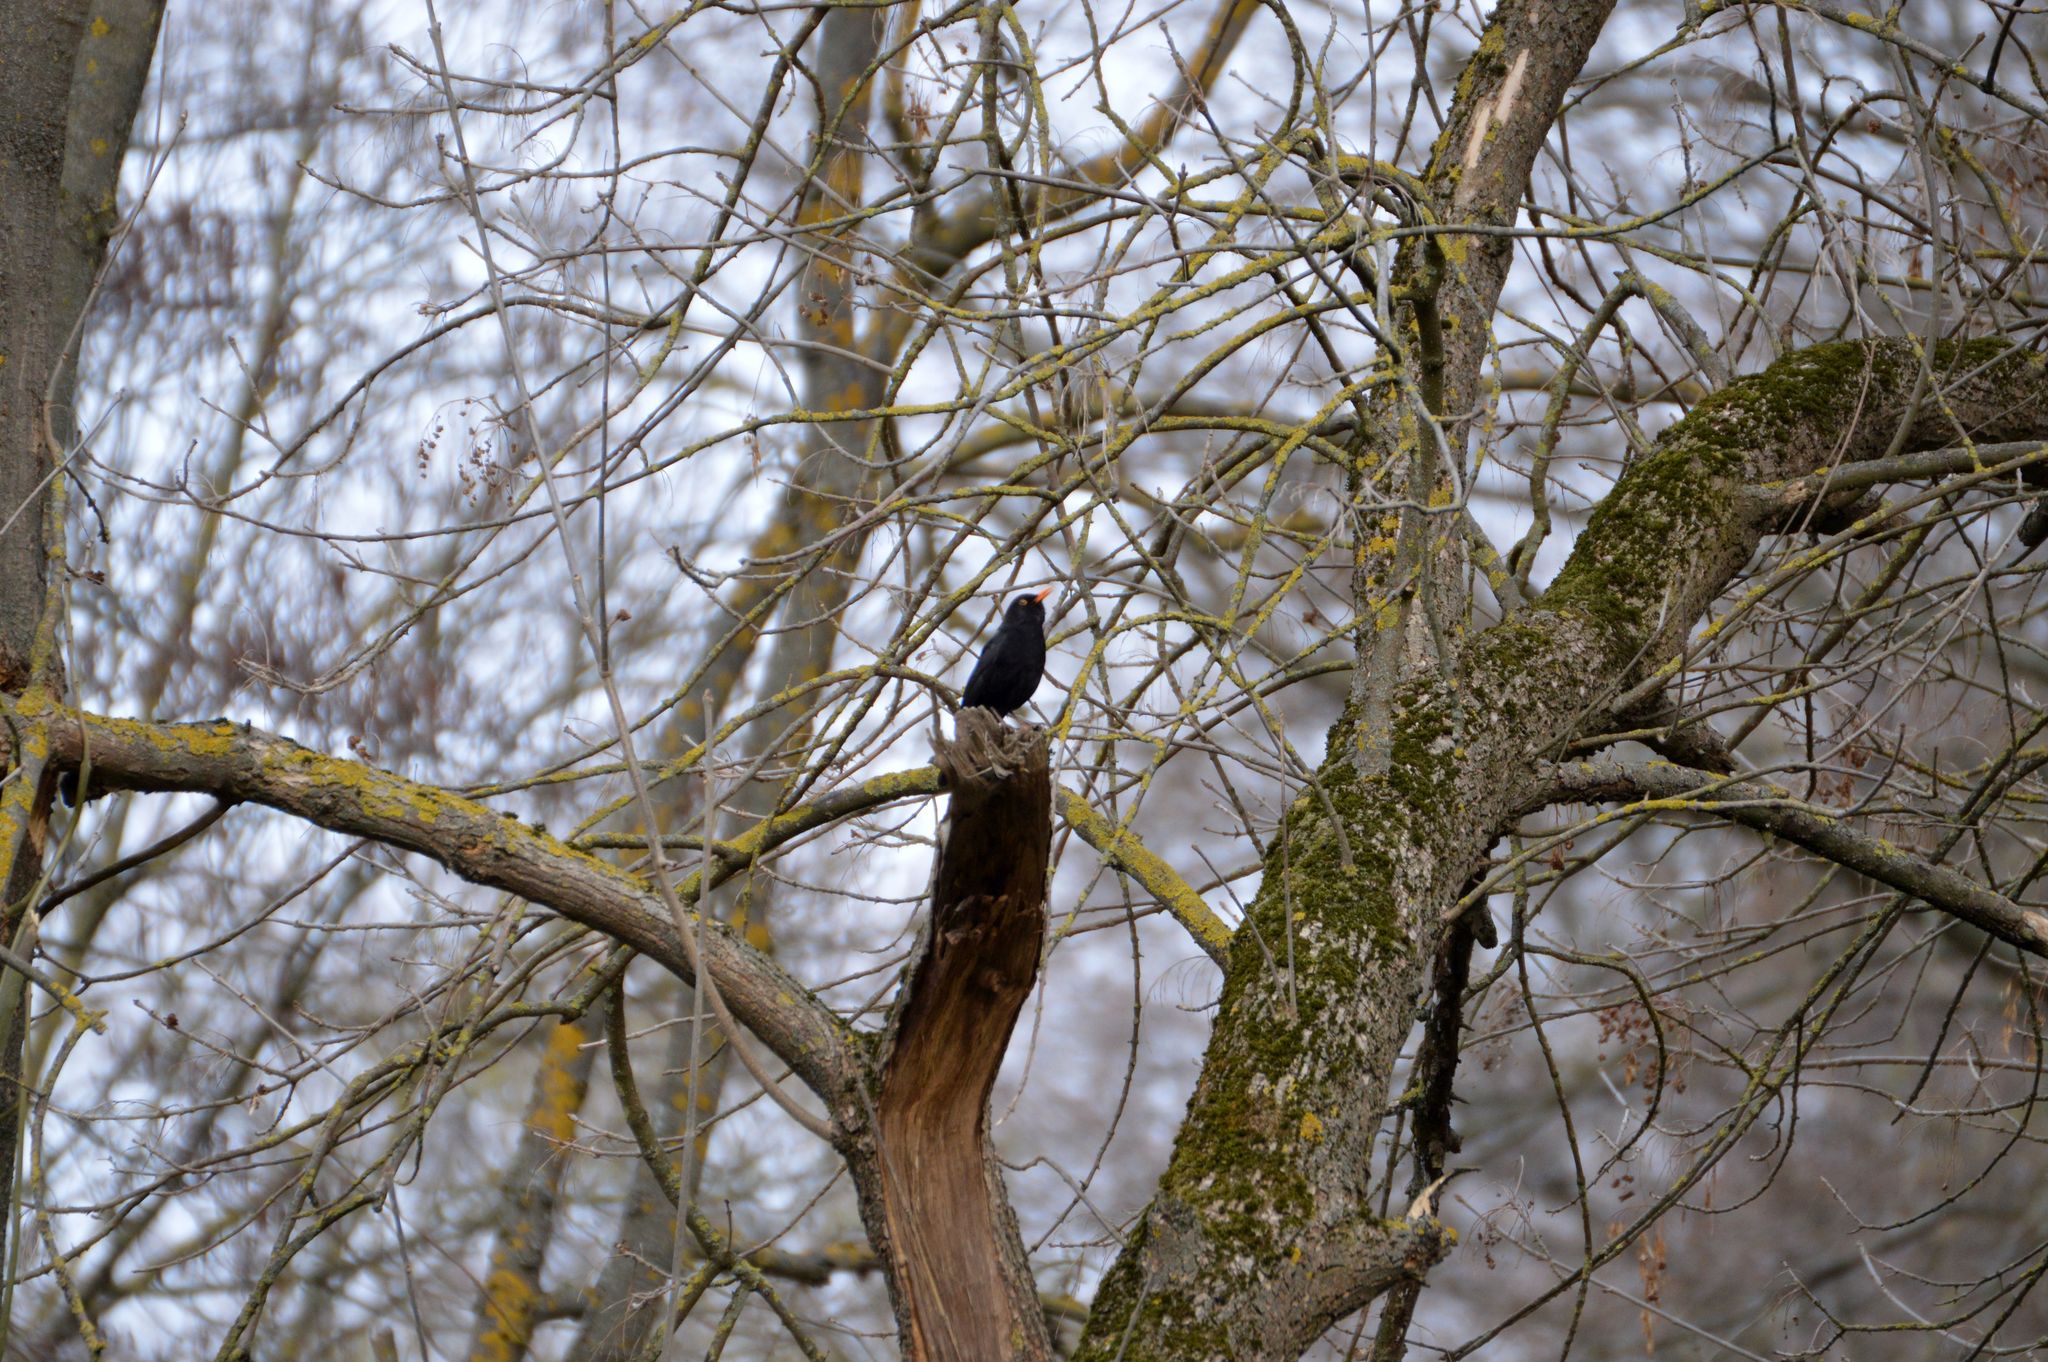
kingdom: Animalia
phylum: Chordata
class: Aves
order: Passeriformes
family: Turdidae
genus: Turdus
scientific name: Turdus merula
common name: Common blackbird
